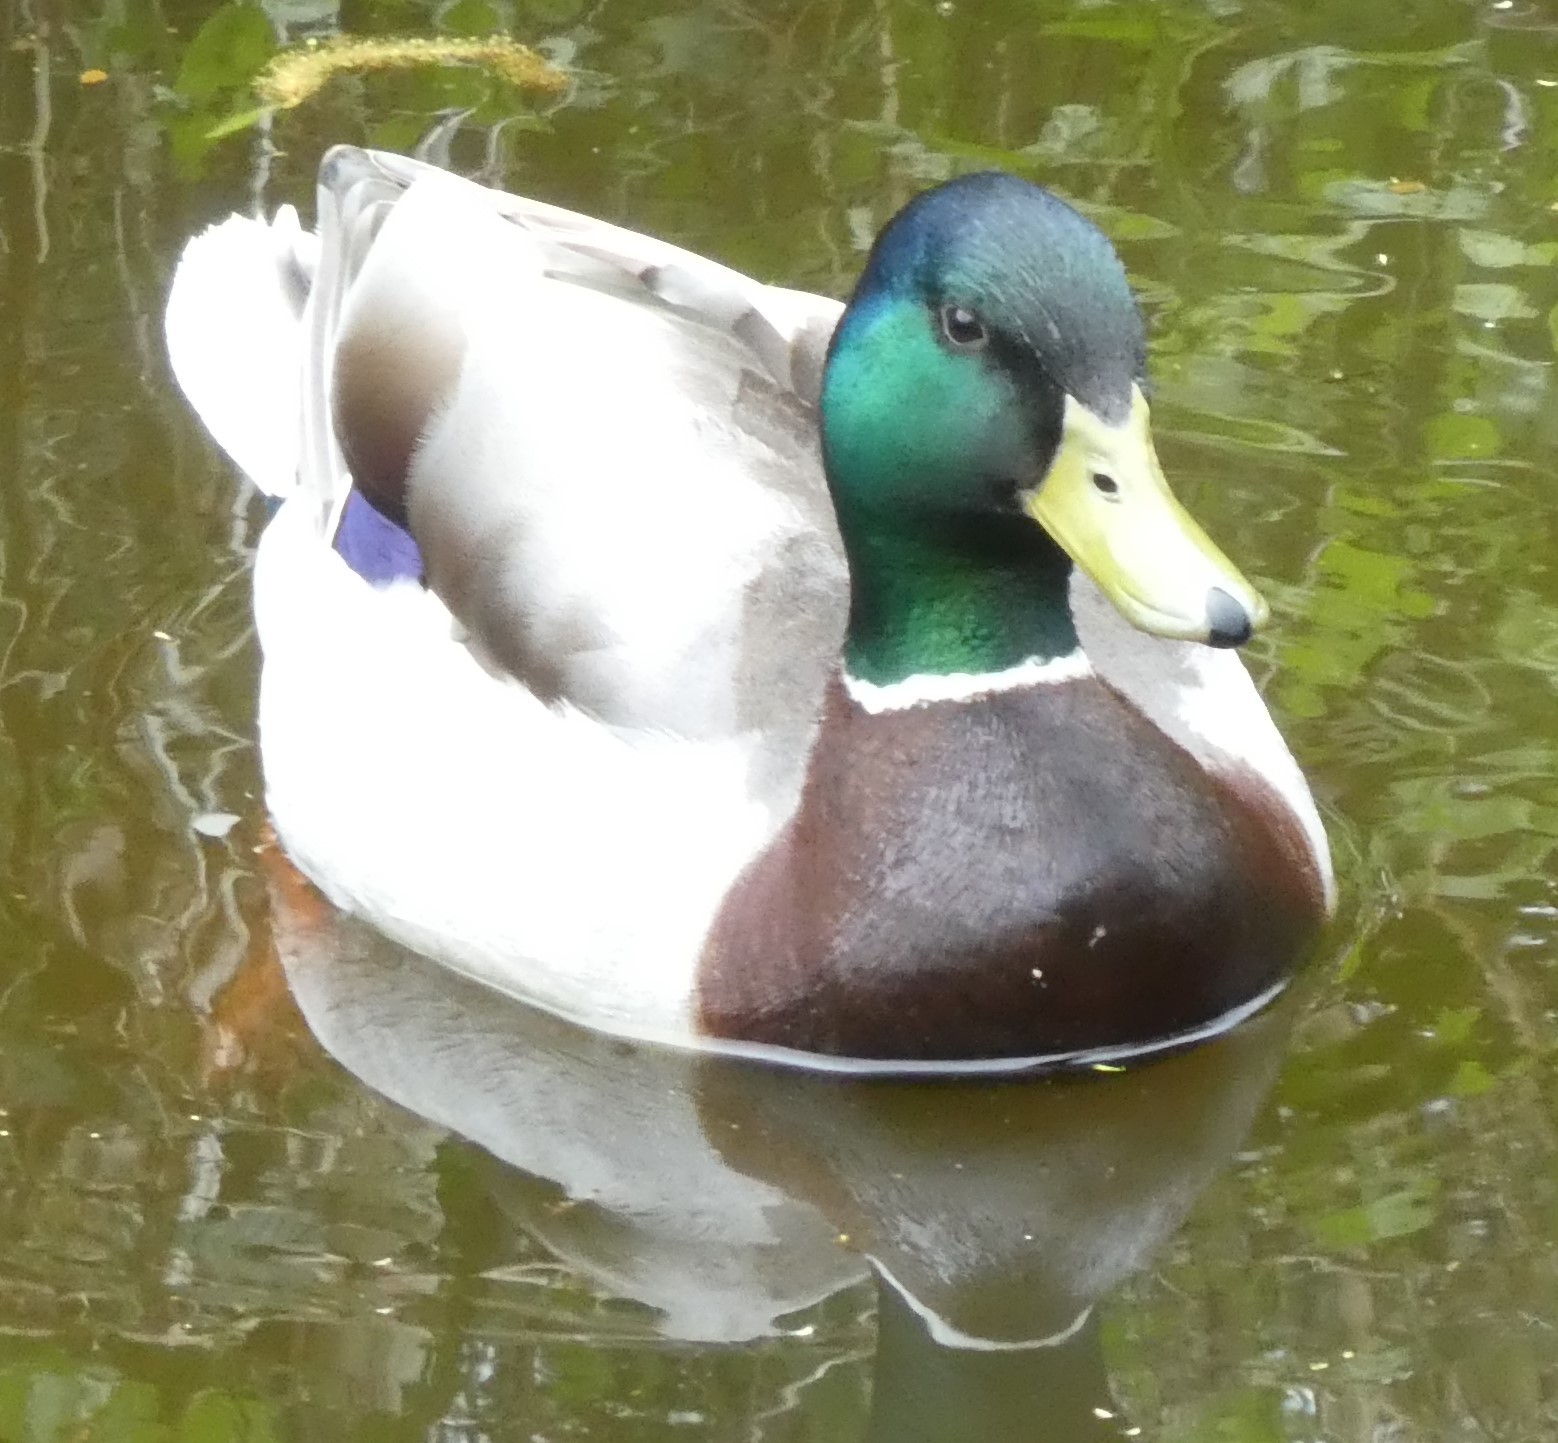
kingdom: Animalia
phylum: Chordata
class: Aves
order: Anseriformes
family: Anatidae
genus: Anas
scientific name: Anas platyrhynchos
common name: Mallard
